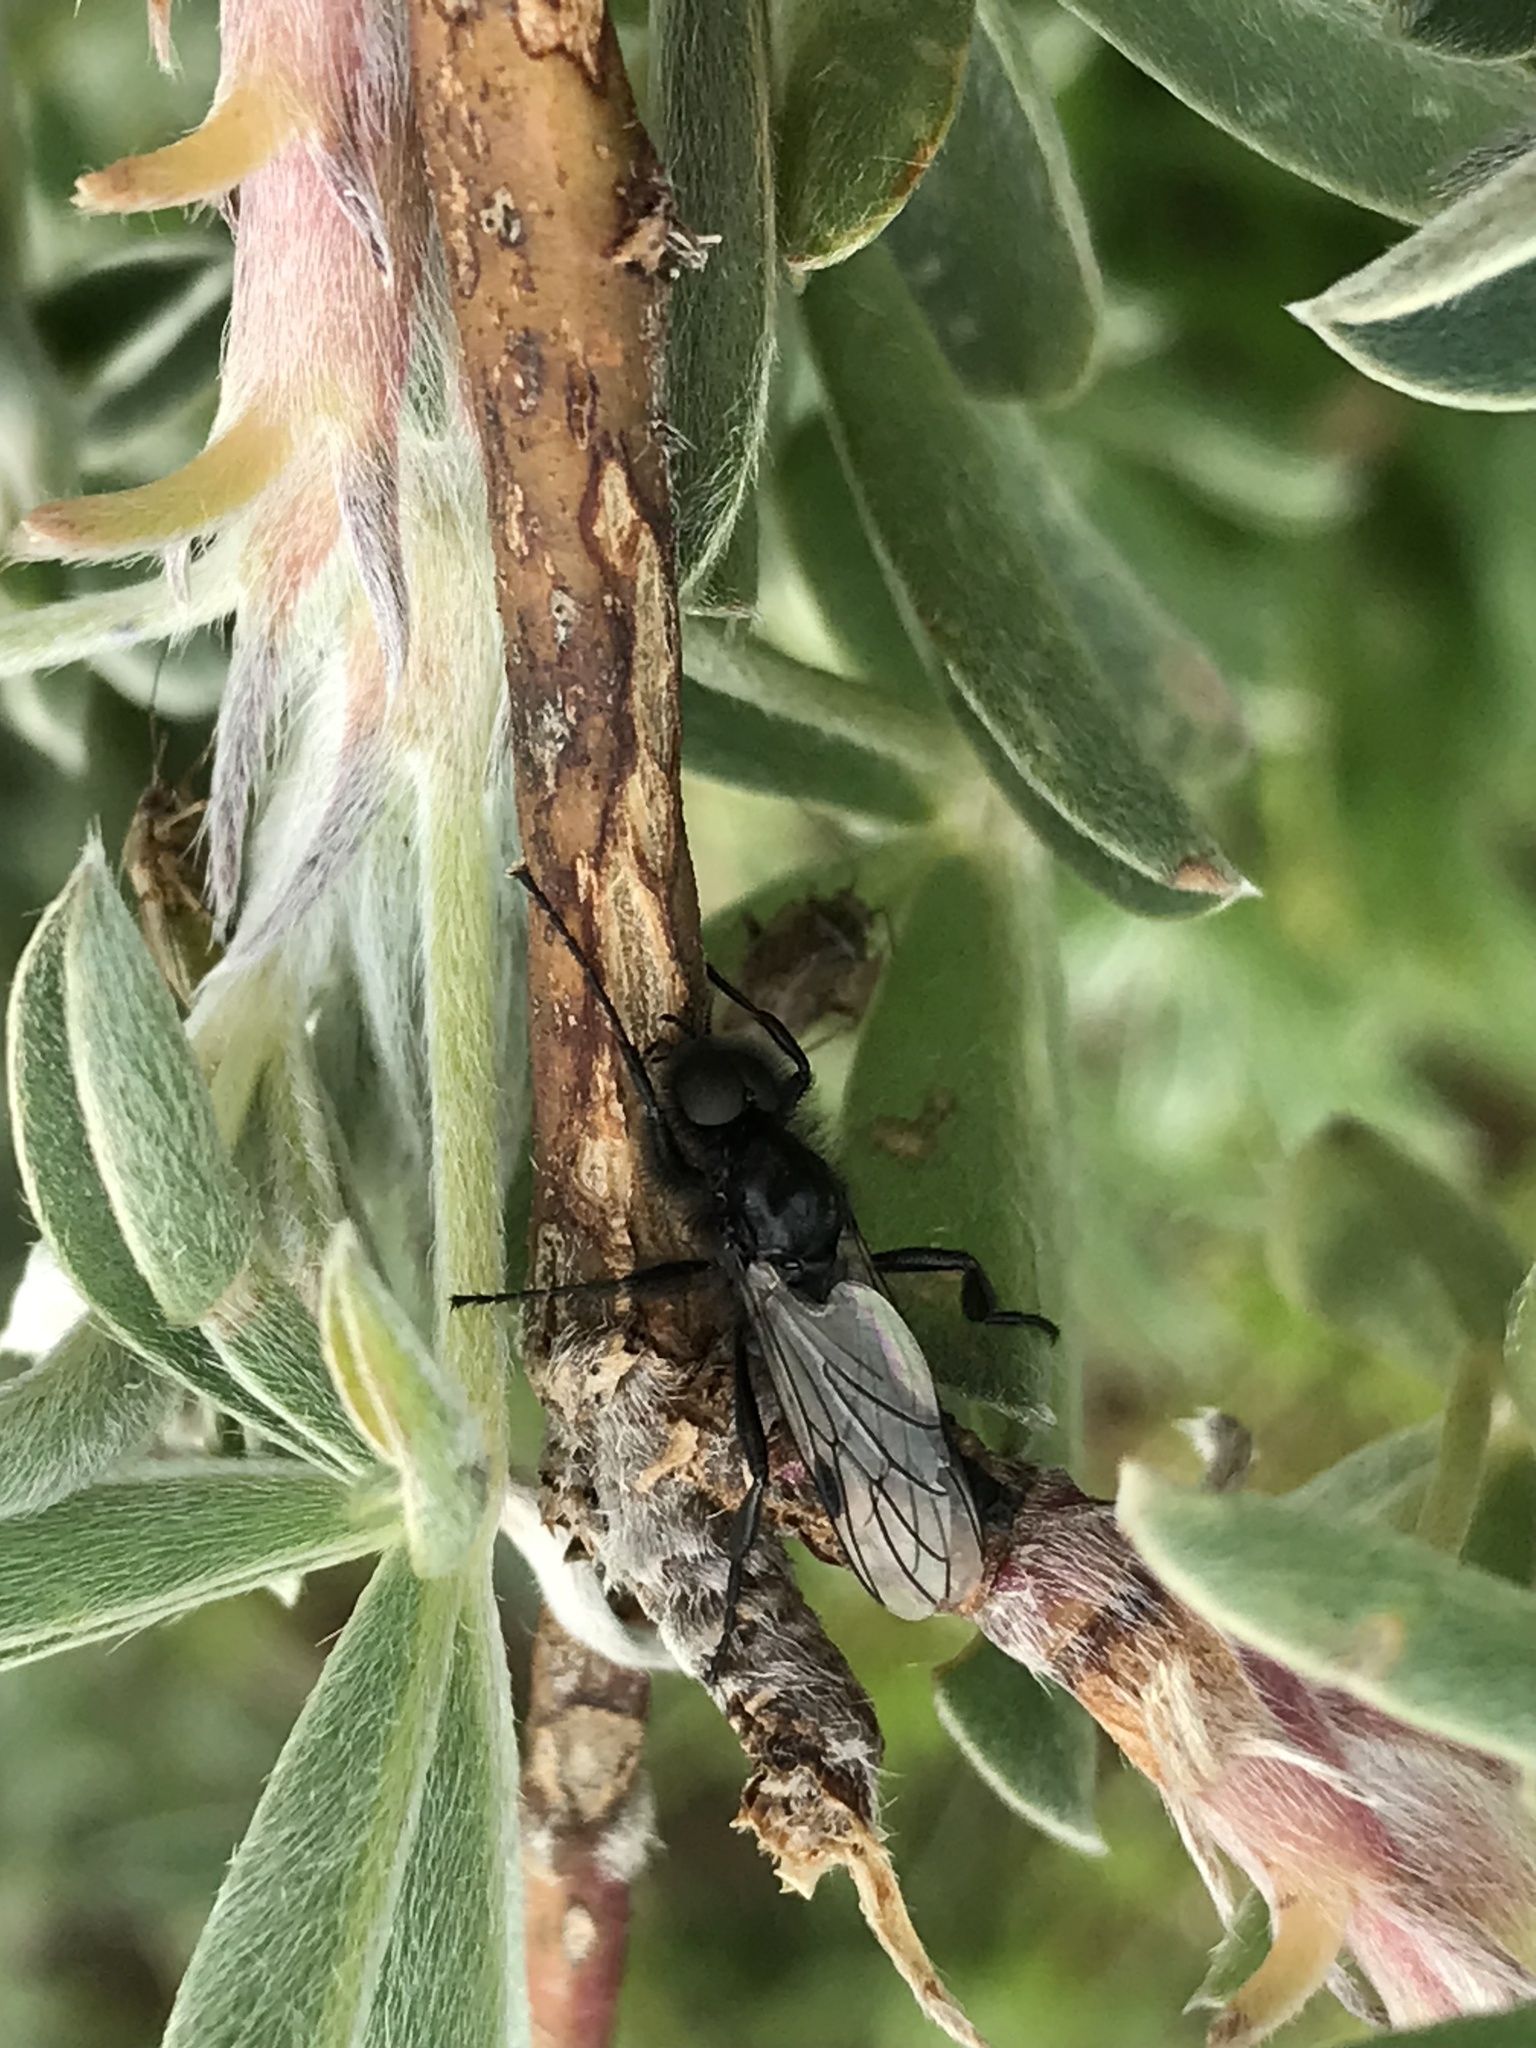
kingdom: Animalia
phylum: Arthropoda
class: Insecta
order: Diptera
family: Bibionidae
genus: Bibio
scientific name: Bibio necotus
